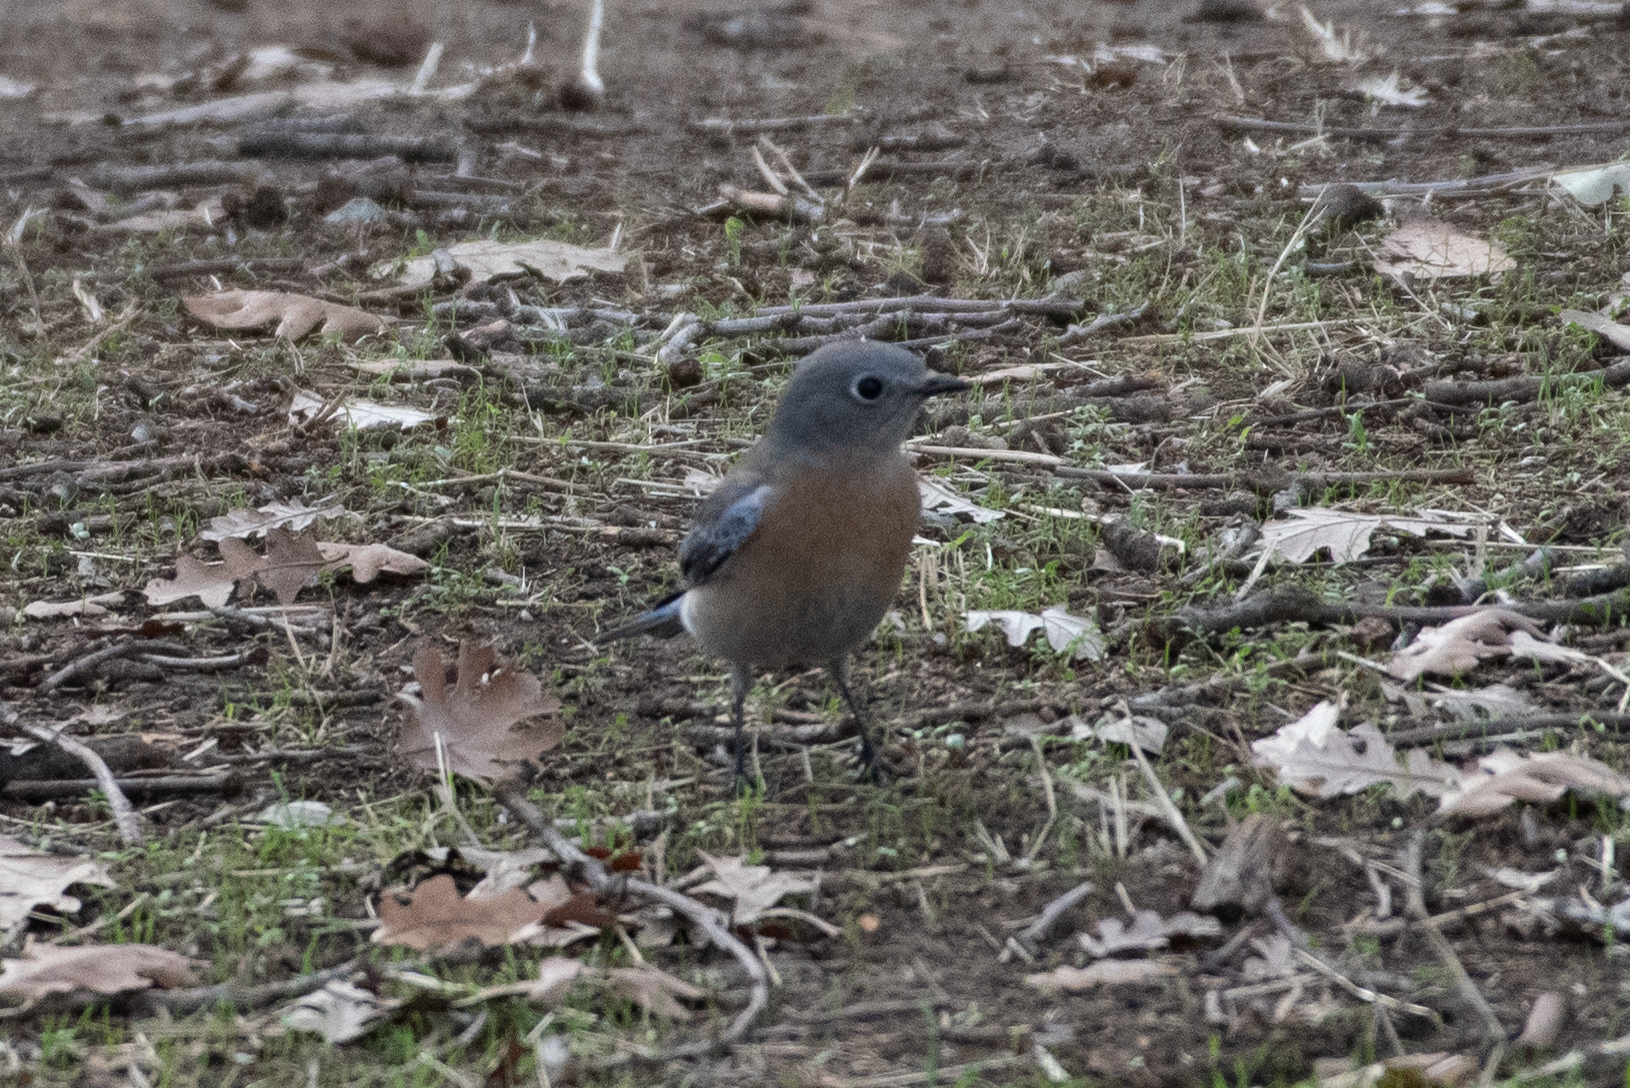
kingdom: Animalia
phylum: Chordata
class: Aves
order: Passeriformes
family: Turdidae
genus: Sialia
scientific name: Sialia mexicana
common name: Western bluebird
